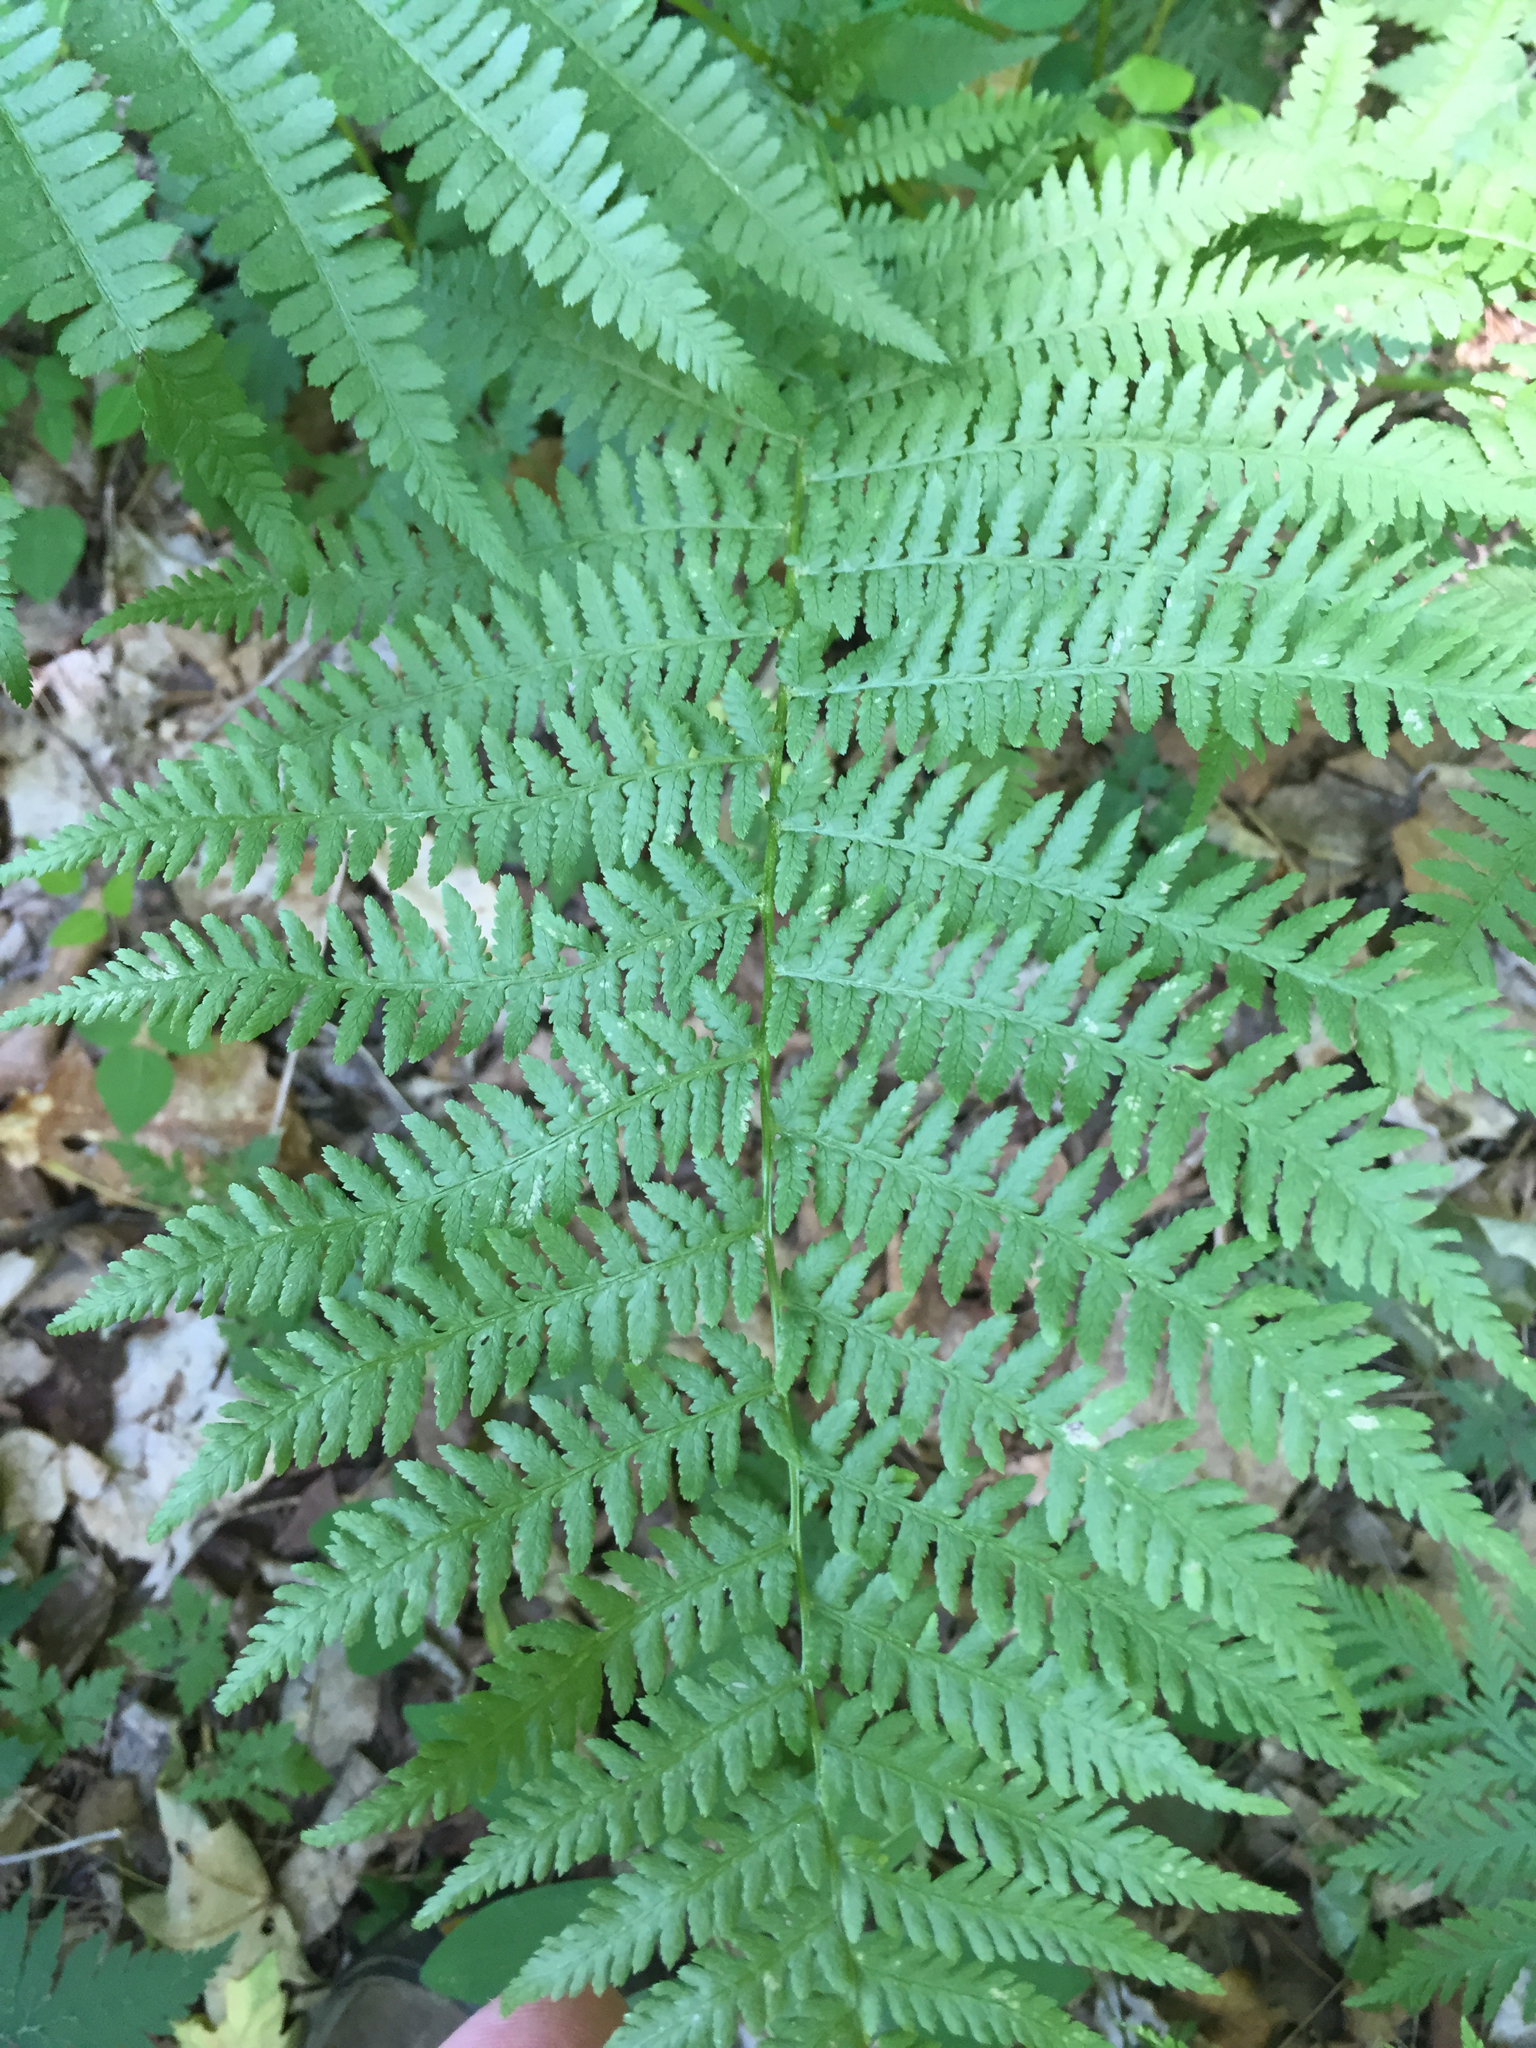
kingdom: Plantae
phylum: Tracheophyta
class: Polypodiopsida
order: Polypodiales
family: Athyriaceae
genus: Athyrium
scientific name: Athyrium angustum
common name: Northern lady fern
